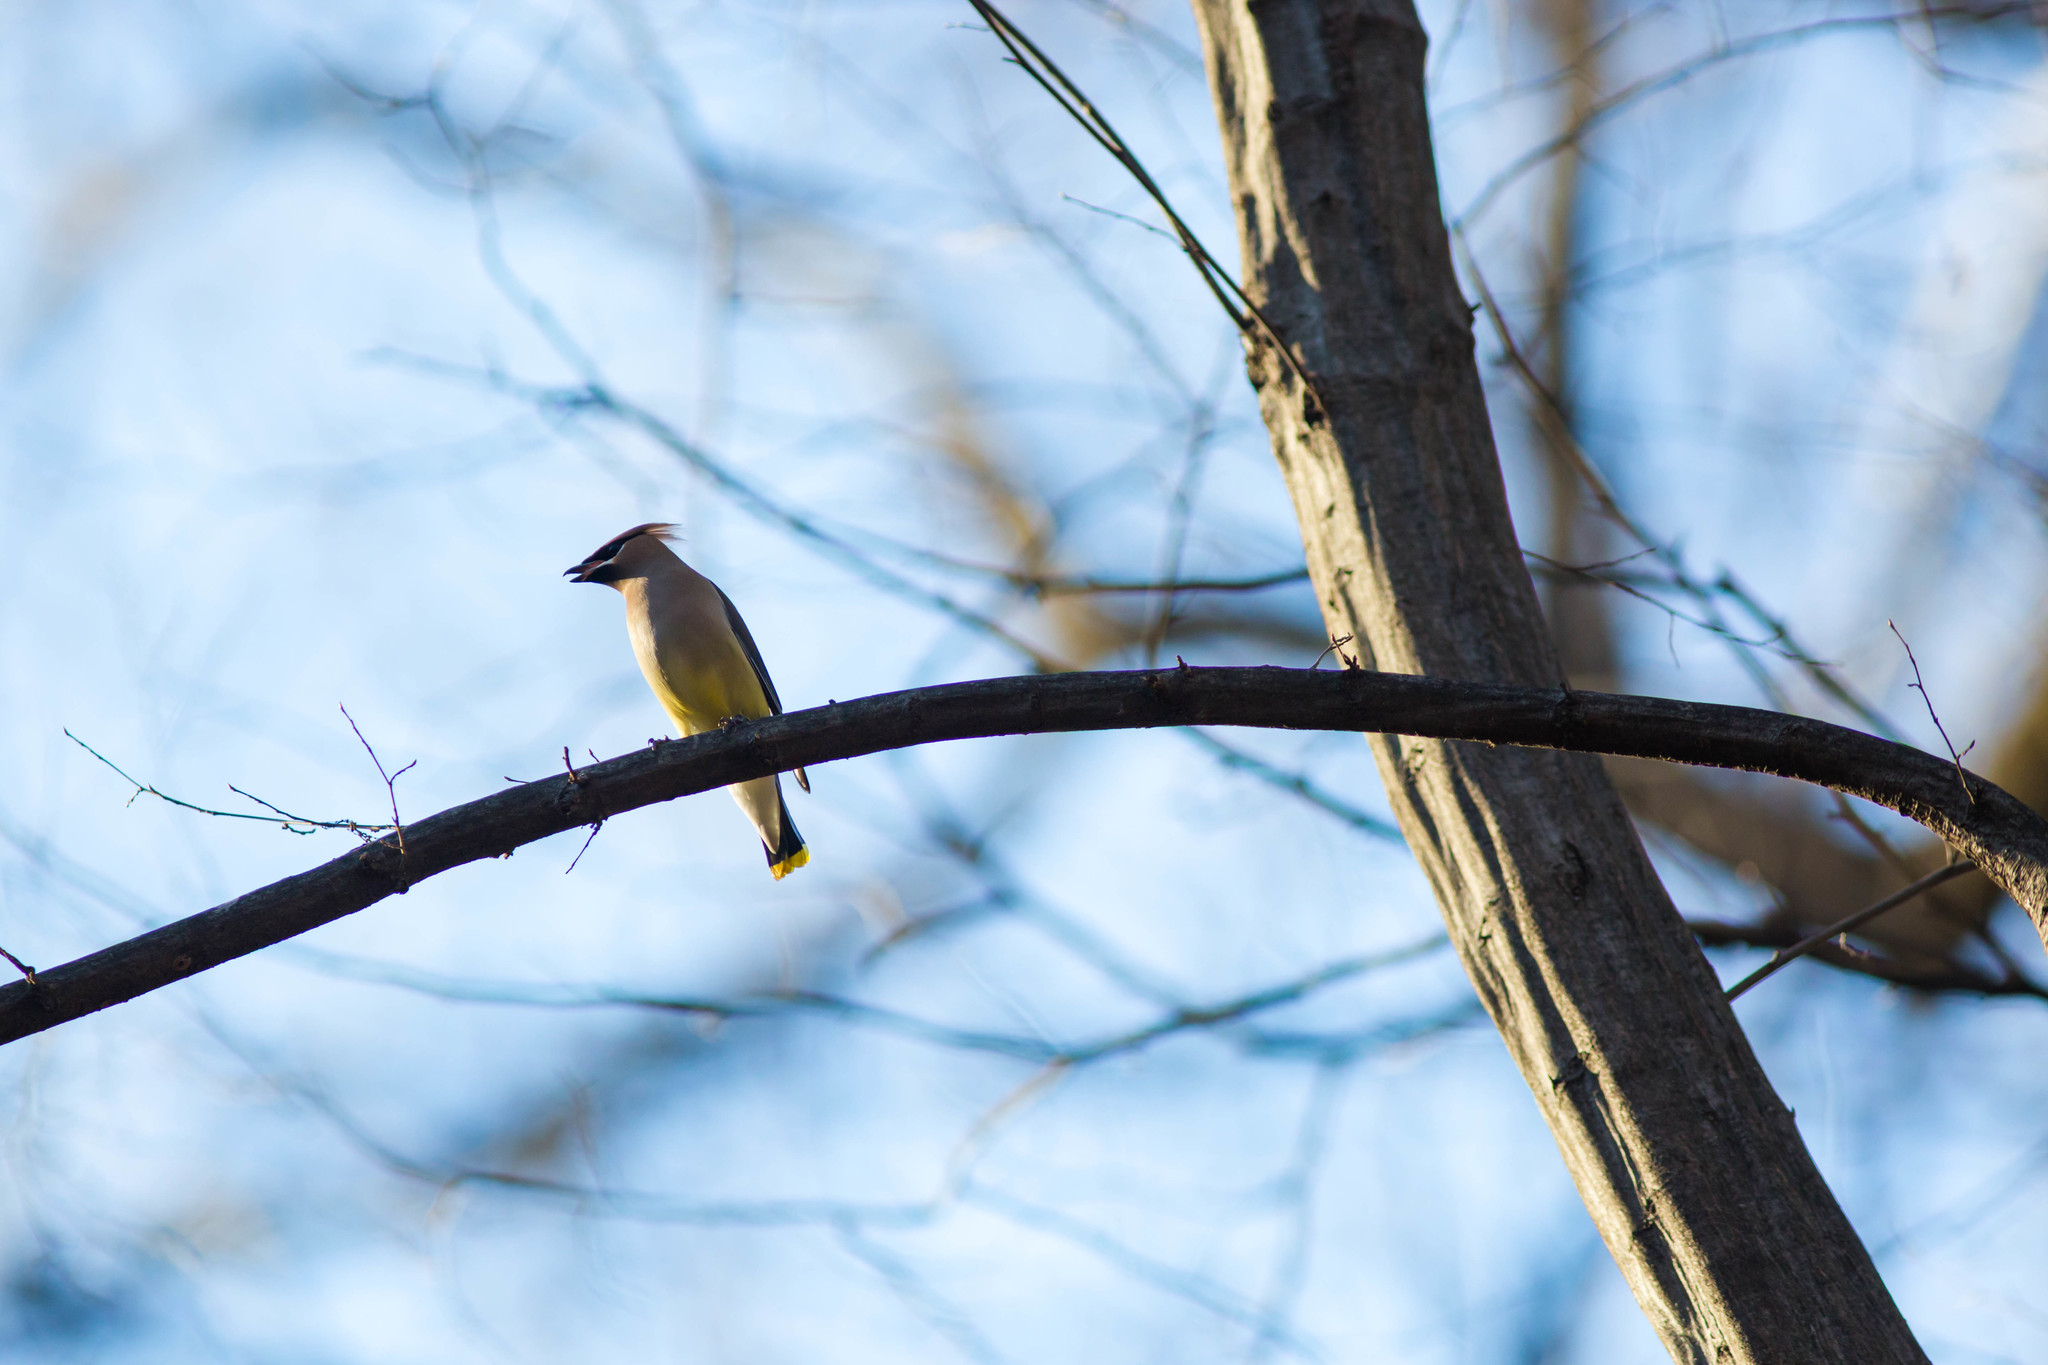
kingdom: Animalia
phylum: Chordata
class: Aves
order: Passeriformes
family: Bombycillidae
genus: Bombycilla
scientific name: Bombycilla cedrorum
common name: Cedar waxwing
